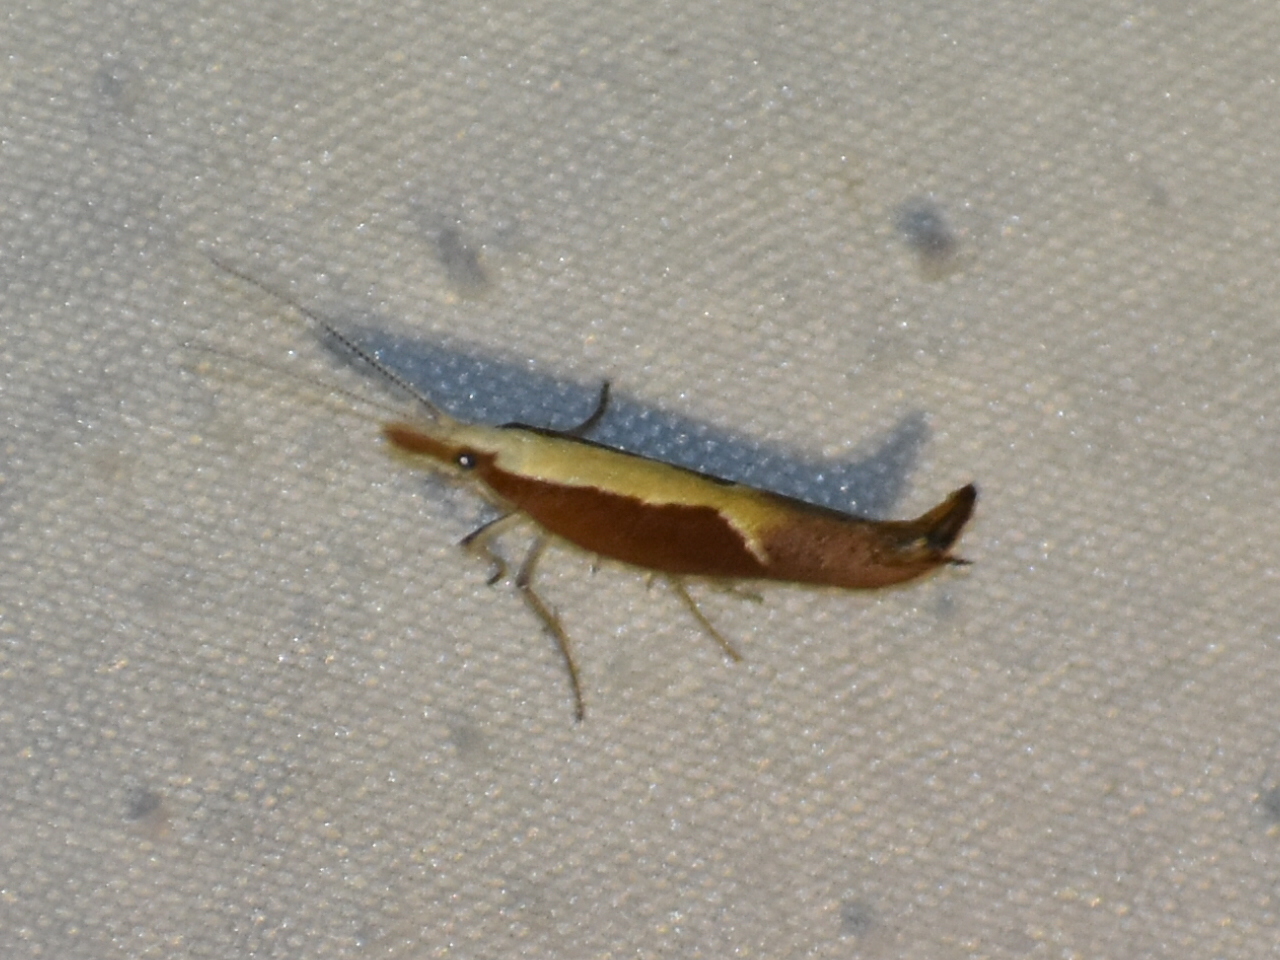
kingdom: Animalia
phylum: Arthropoda
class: Insecta
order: Lepidoptera
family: Ypsolophidae
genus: Ypsolopha
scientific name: Ypsolopha dentella
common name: Honeysuckle moth
